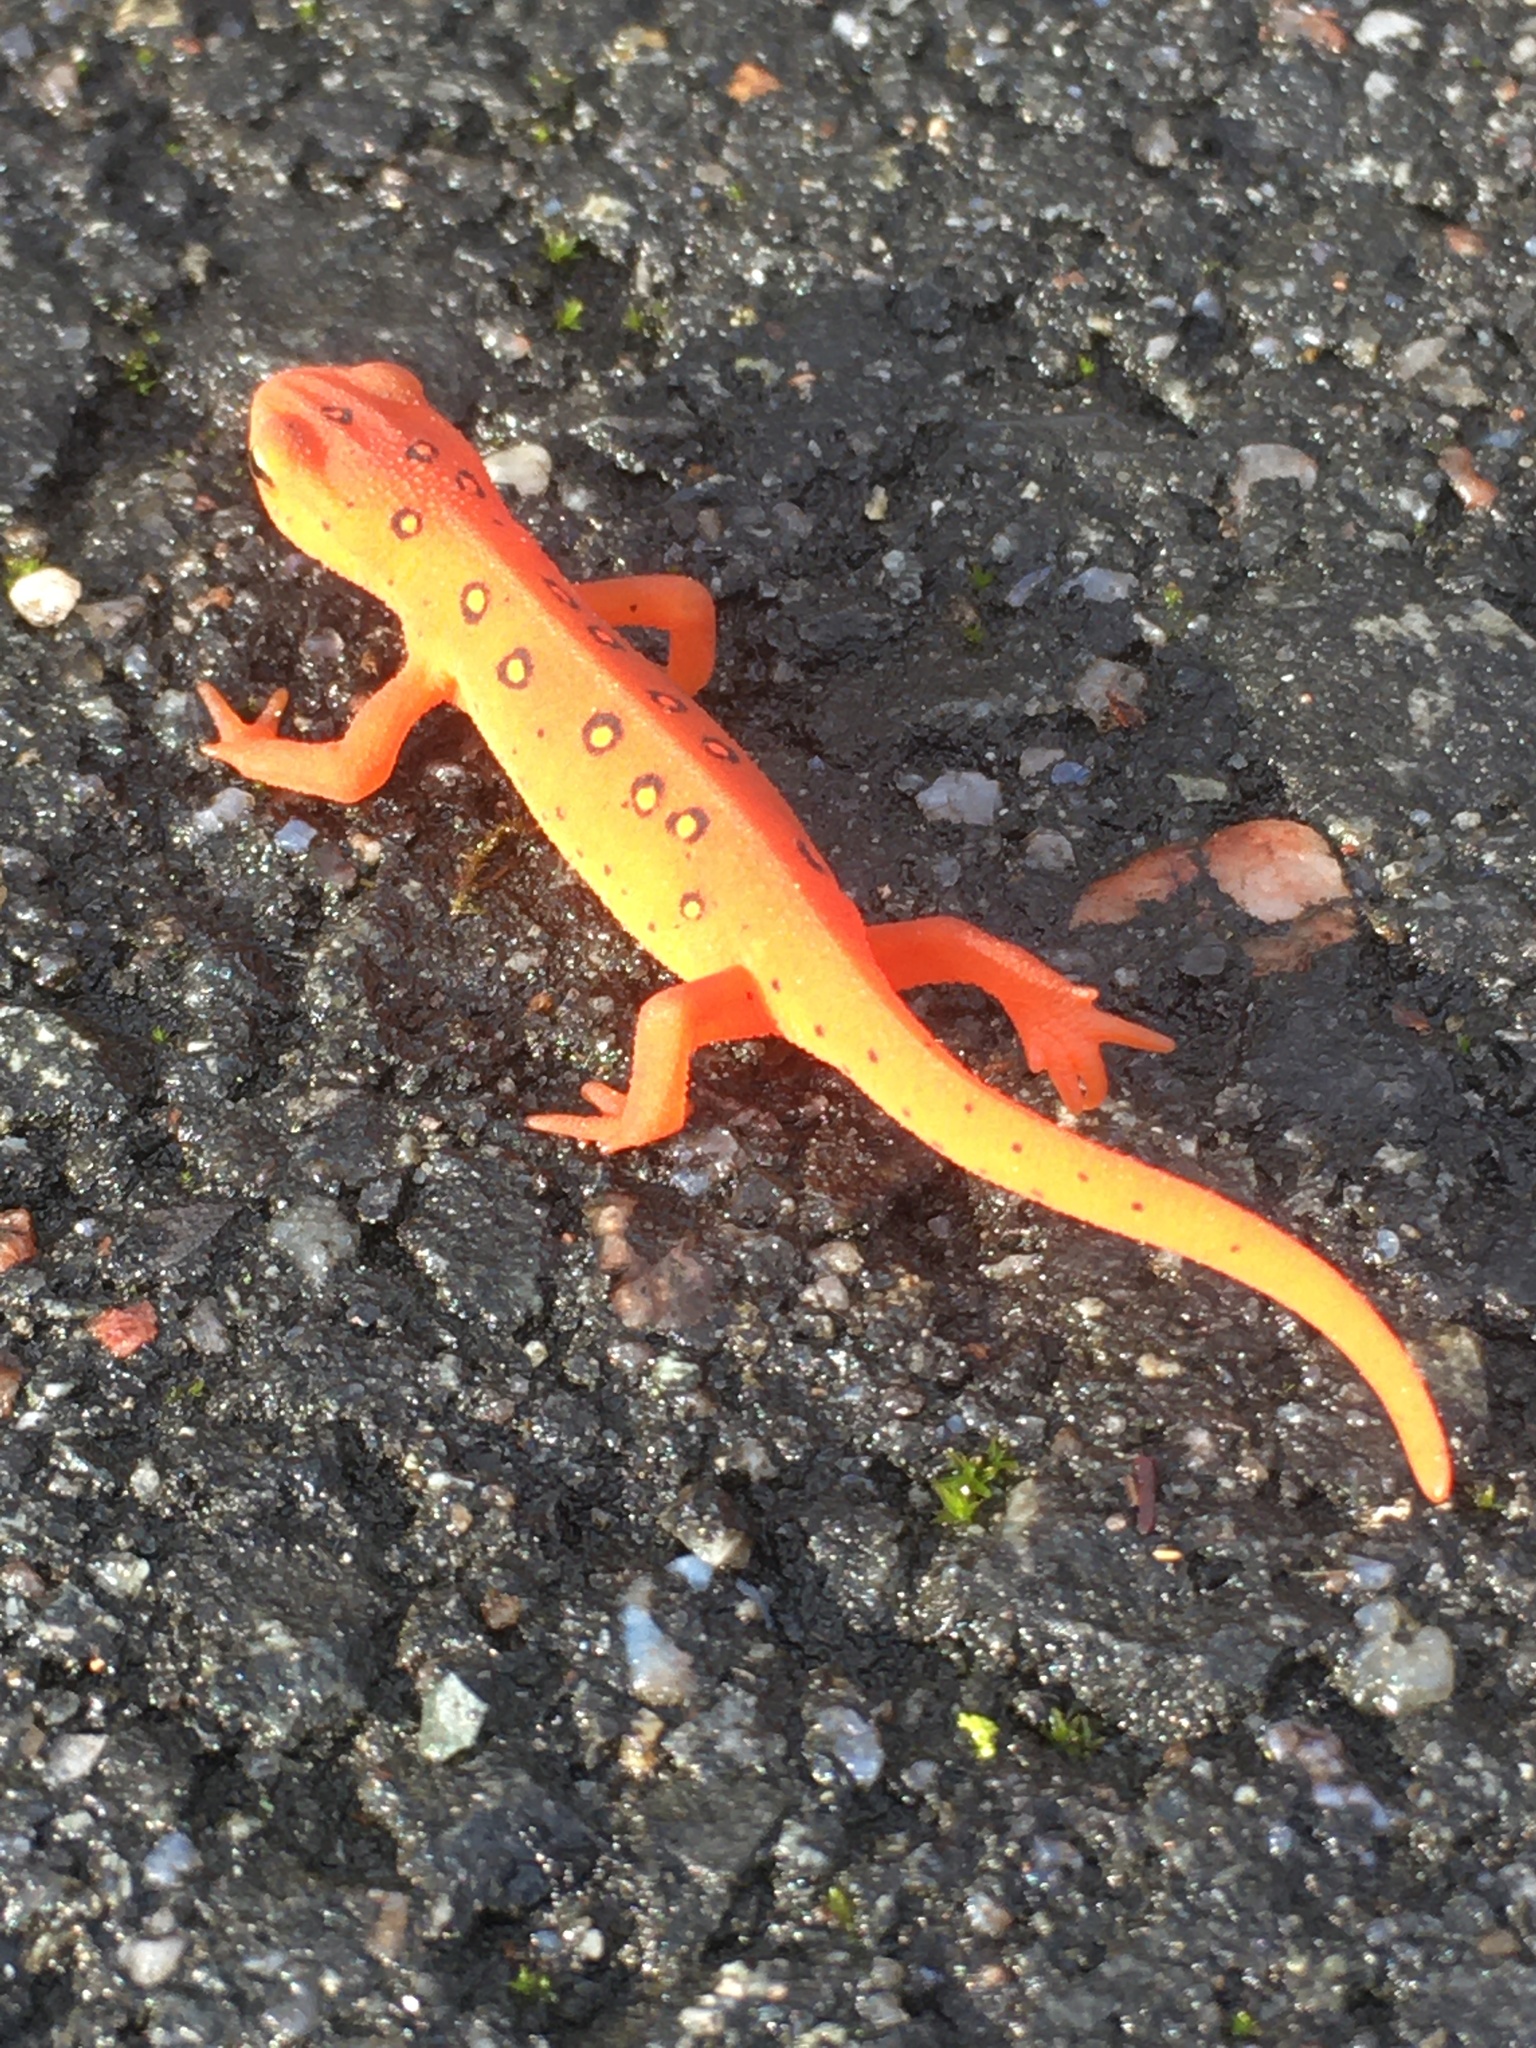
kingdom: Animalia
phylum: Chordata
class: Amphibia
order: Caudata
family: Salamandridae
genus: Notophthalmus
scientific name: Notophthalmus viridescens
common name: Eastern newt
